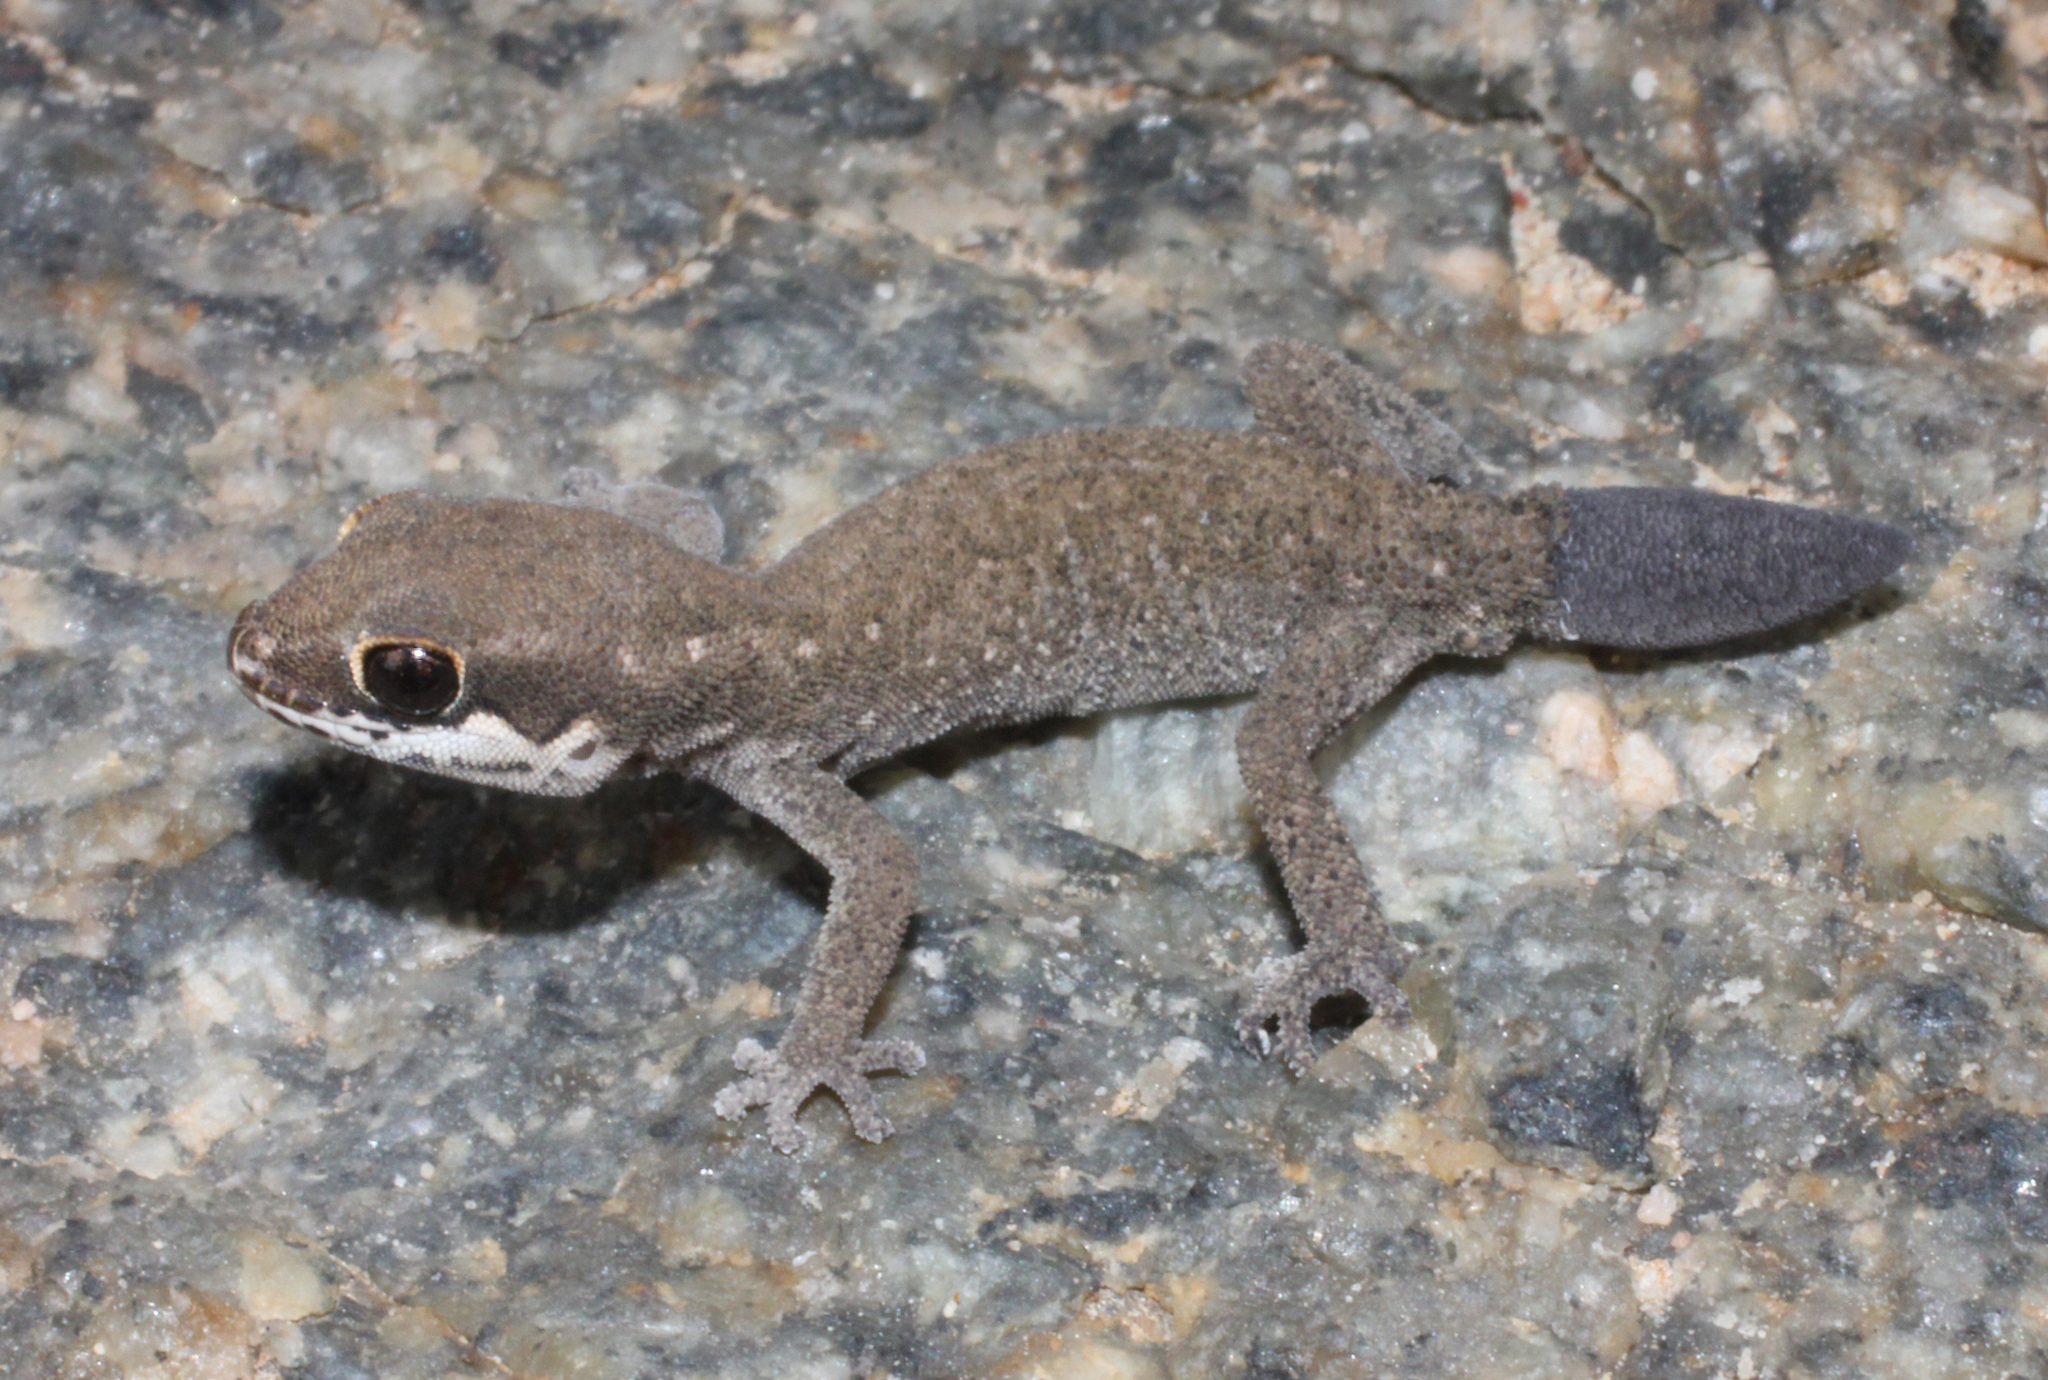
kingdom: Animalia
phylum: Chordata
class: Squamata
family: Gekkonidae
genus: Pachydactylus
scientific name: Pachydactylus geitje
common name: Ocellated thick-toed gecko
